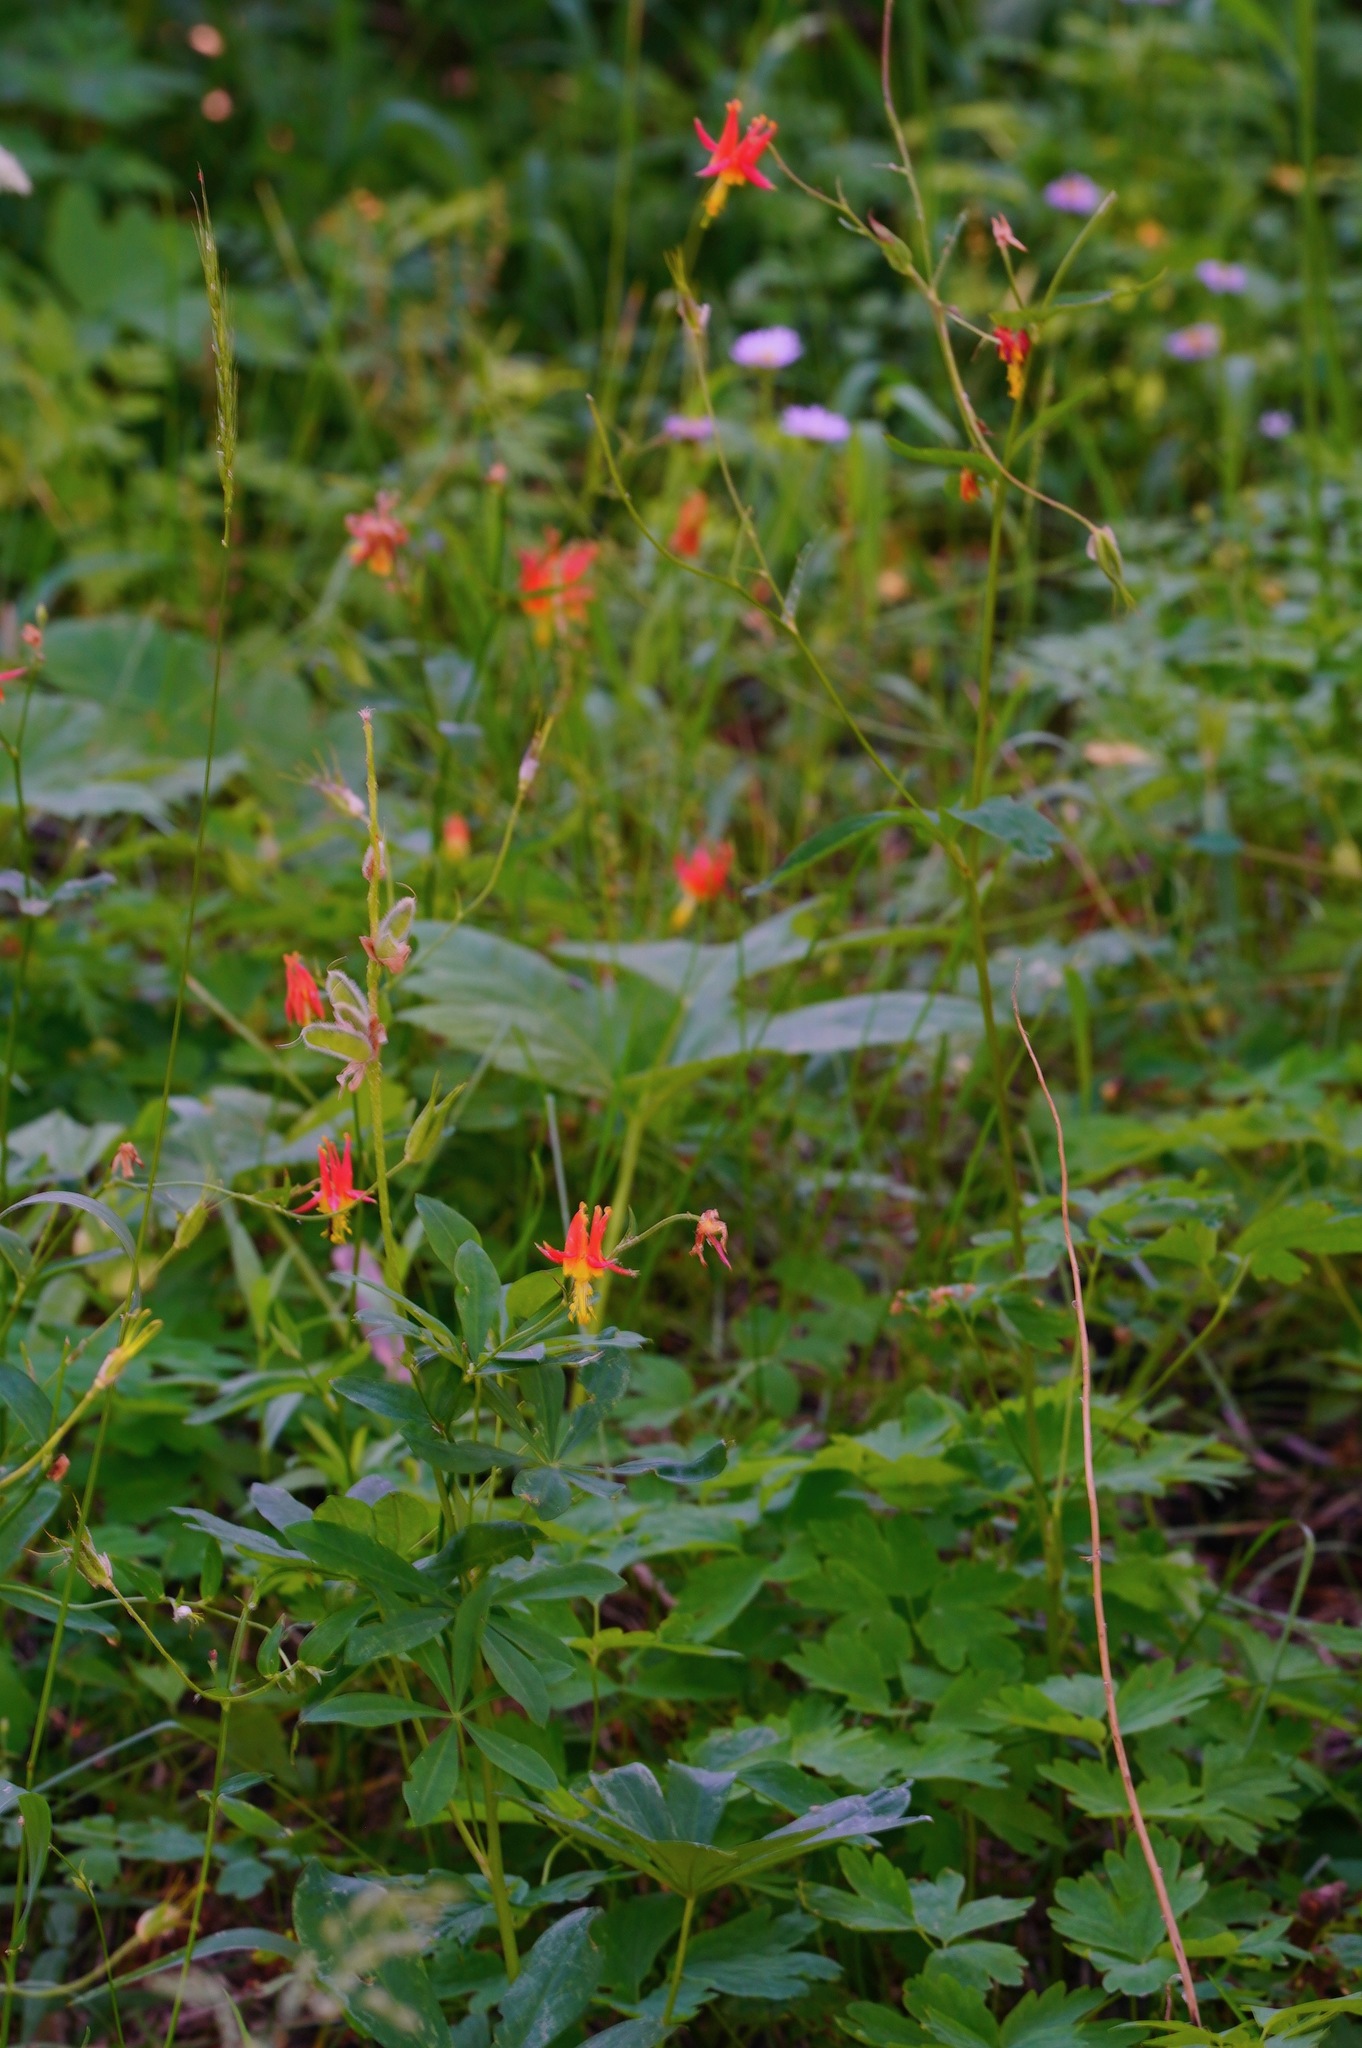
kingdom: Plantae
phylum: Tracheophyta
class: Magnoliopsida
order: Ranunculales
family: Ranunculaceae
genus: Aquilegia
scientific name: Aquilegia formosa
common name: Sitka columbine
